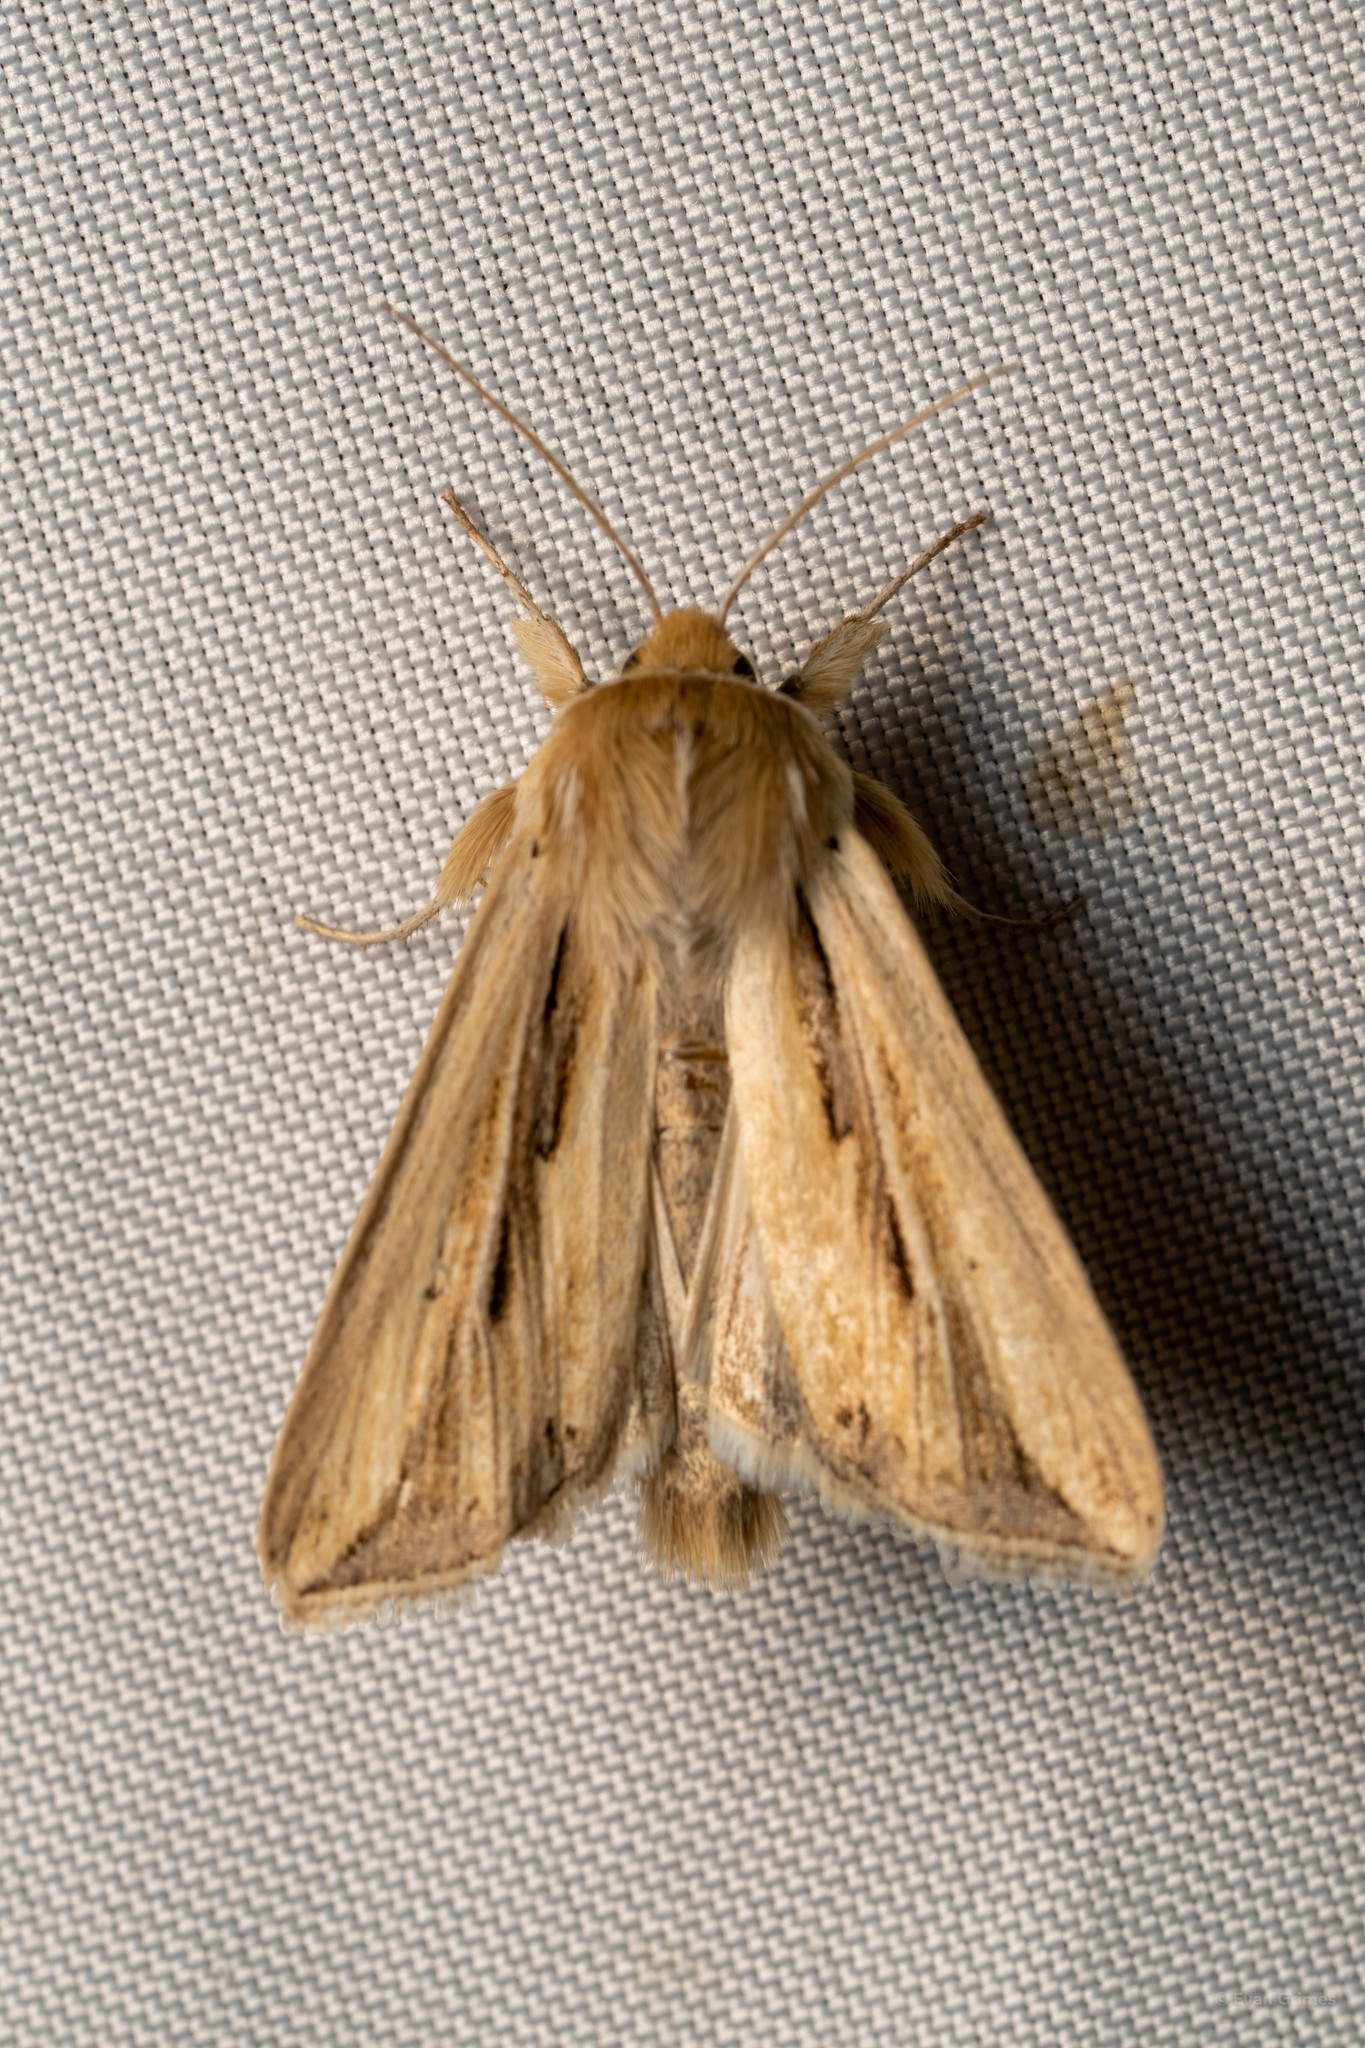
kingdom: Animalia
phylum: Arthropoda
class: Insecta
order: Lepidoptera
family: Noctuidae
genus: Dargida
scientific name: Dargida diffusa
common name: Wheat head armyworm
